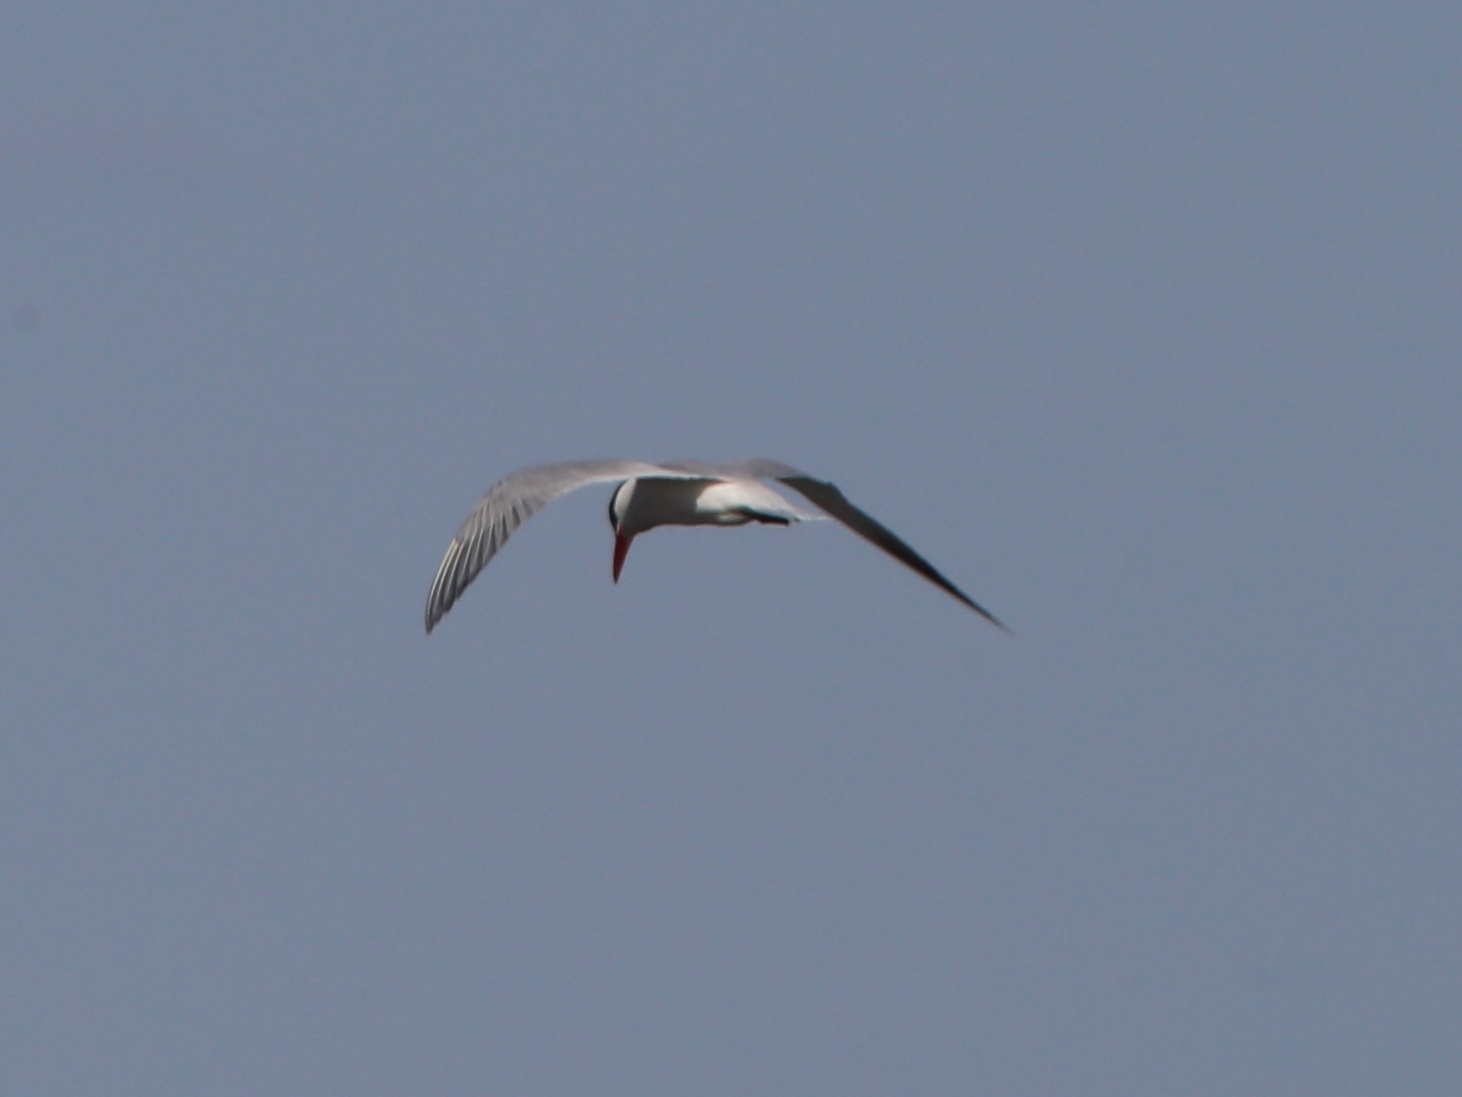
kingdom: Animalia
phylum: Chordata
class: Aves
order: Charadriiformes
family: Laridae
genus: Sterna
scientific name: Sterna hirundo
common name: Common tern
